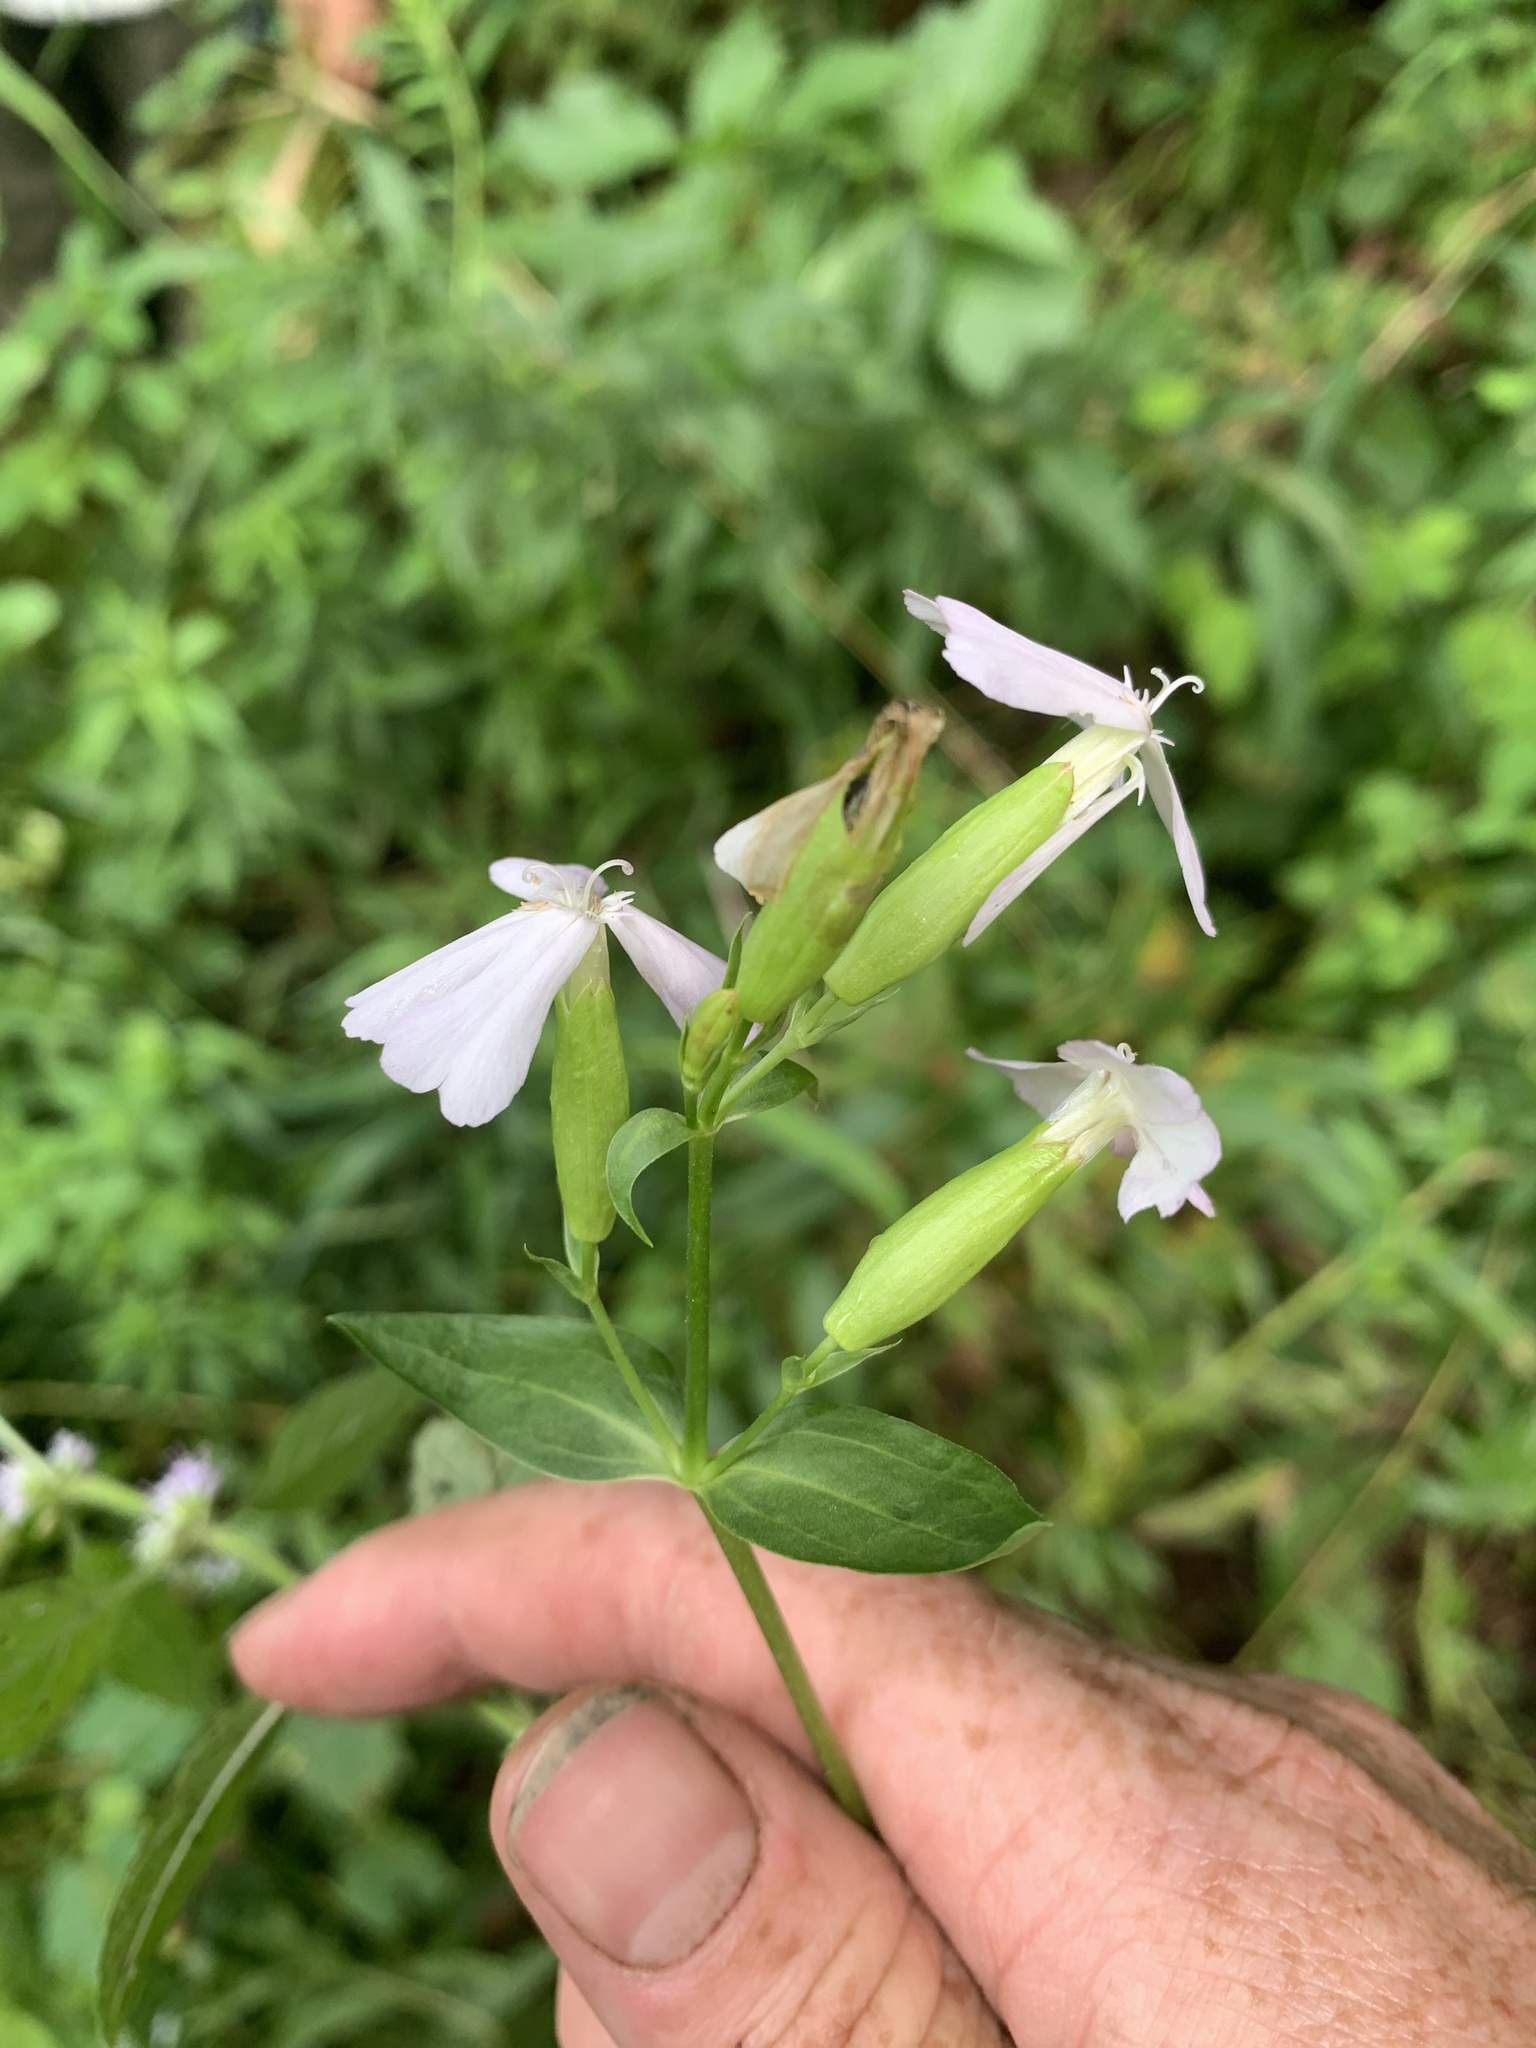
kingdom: Plantae
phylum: Tracheophyta
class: Magnoliopsida
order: Caryophyllales
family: Caryophyllaceae
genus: Saponaria
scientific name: Saponaria officinalis
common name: Soapwort
